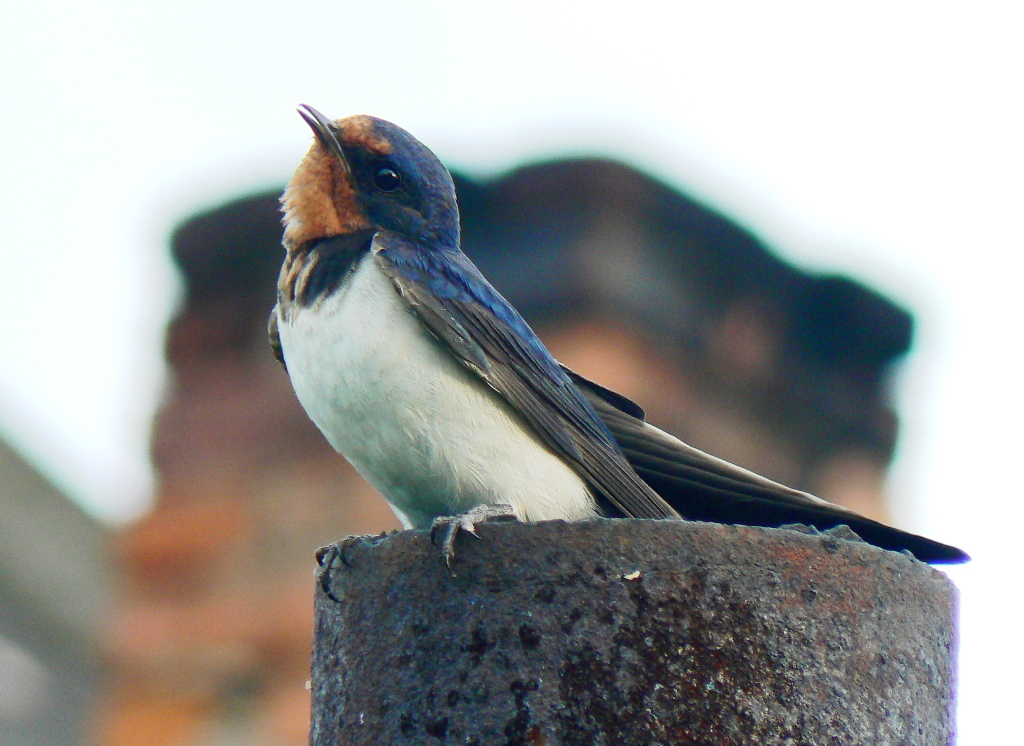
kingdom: Animalia
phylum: Chordata
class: Aves
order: Passeriformes
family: Hirundinidae
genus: Hirundo
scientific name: Hirundo rustica
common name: Barn swallow
